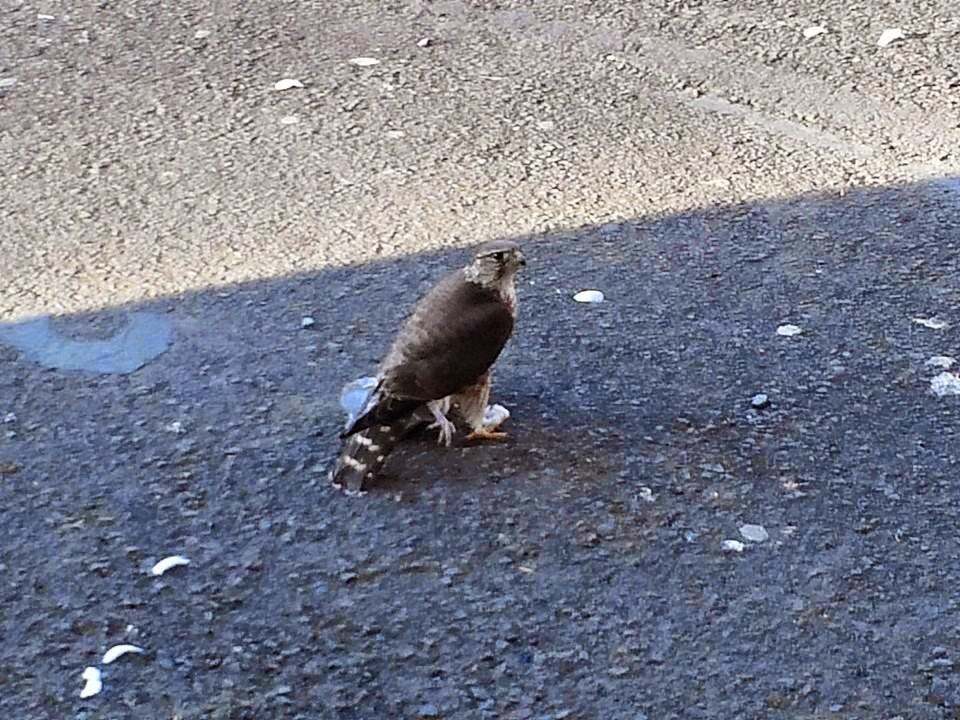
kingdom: Animalia
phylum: Chordata
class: Aves
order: Falconiformes
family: Falconidae
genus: Falco
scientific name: Falco columbarius
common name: Merlin
